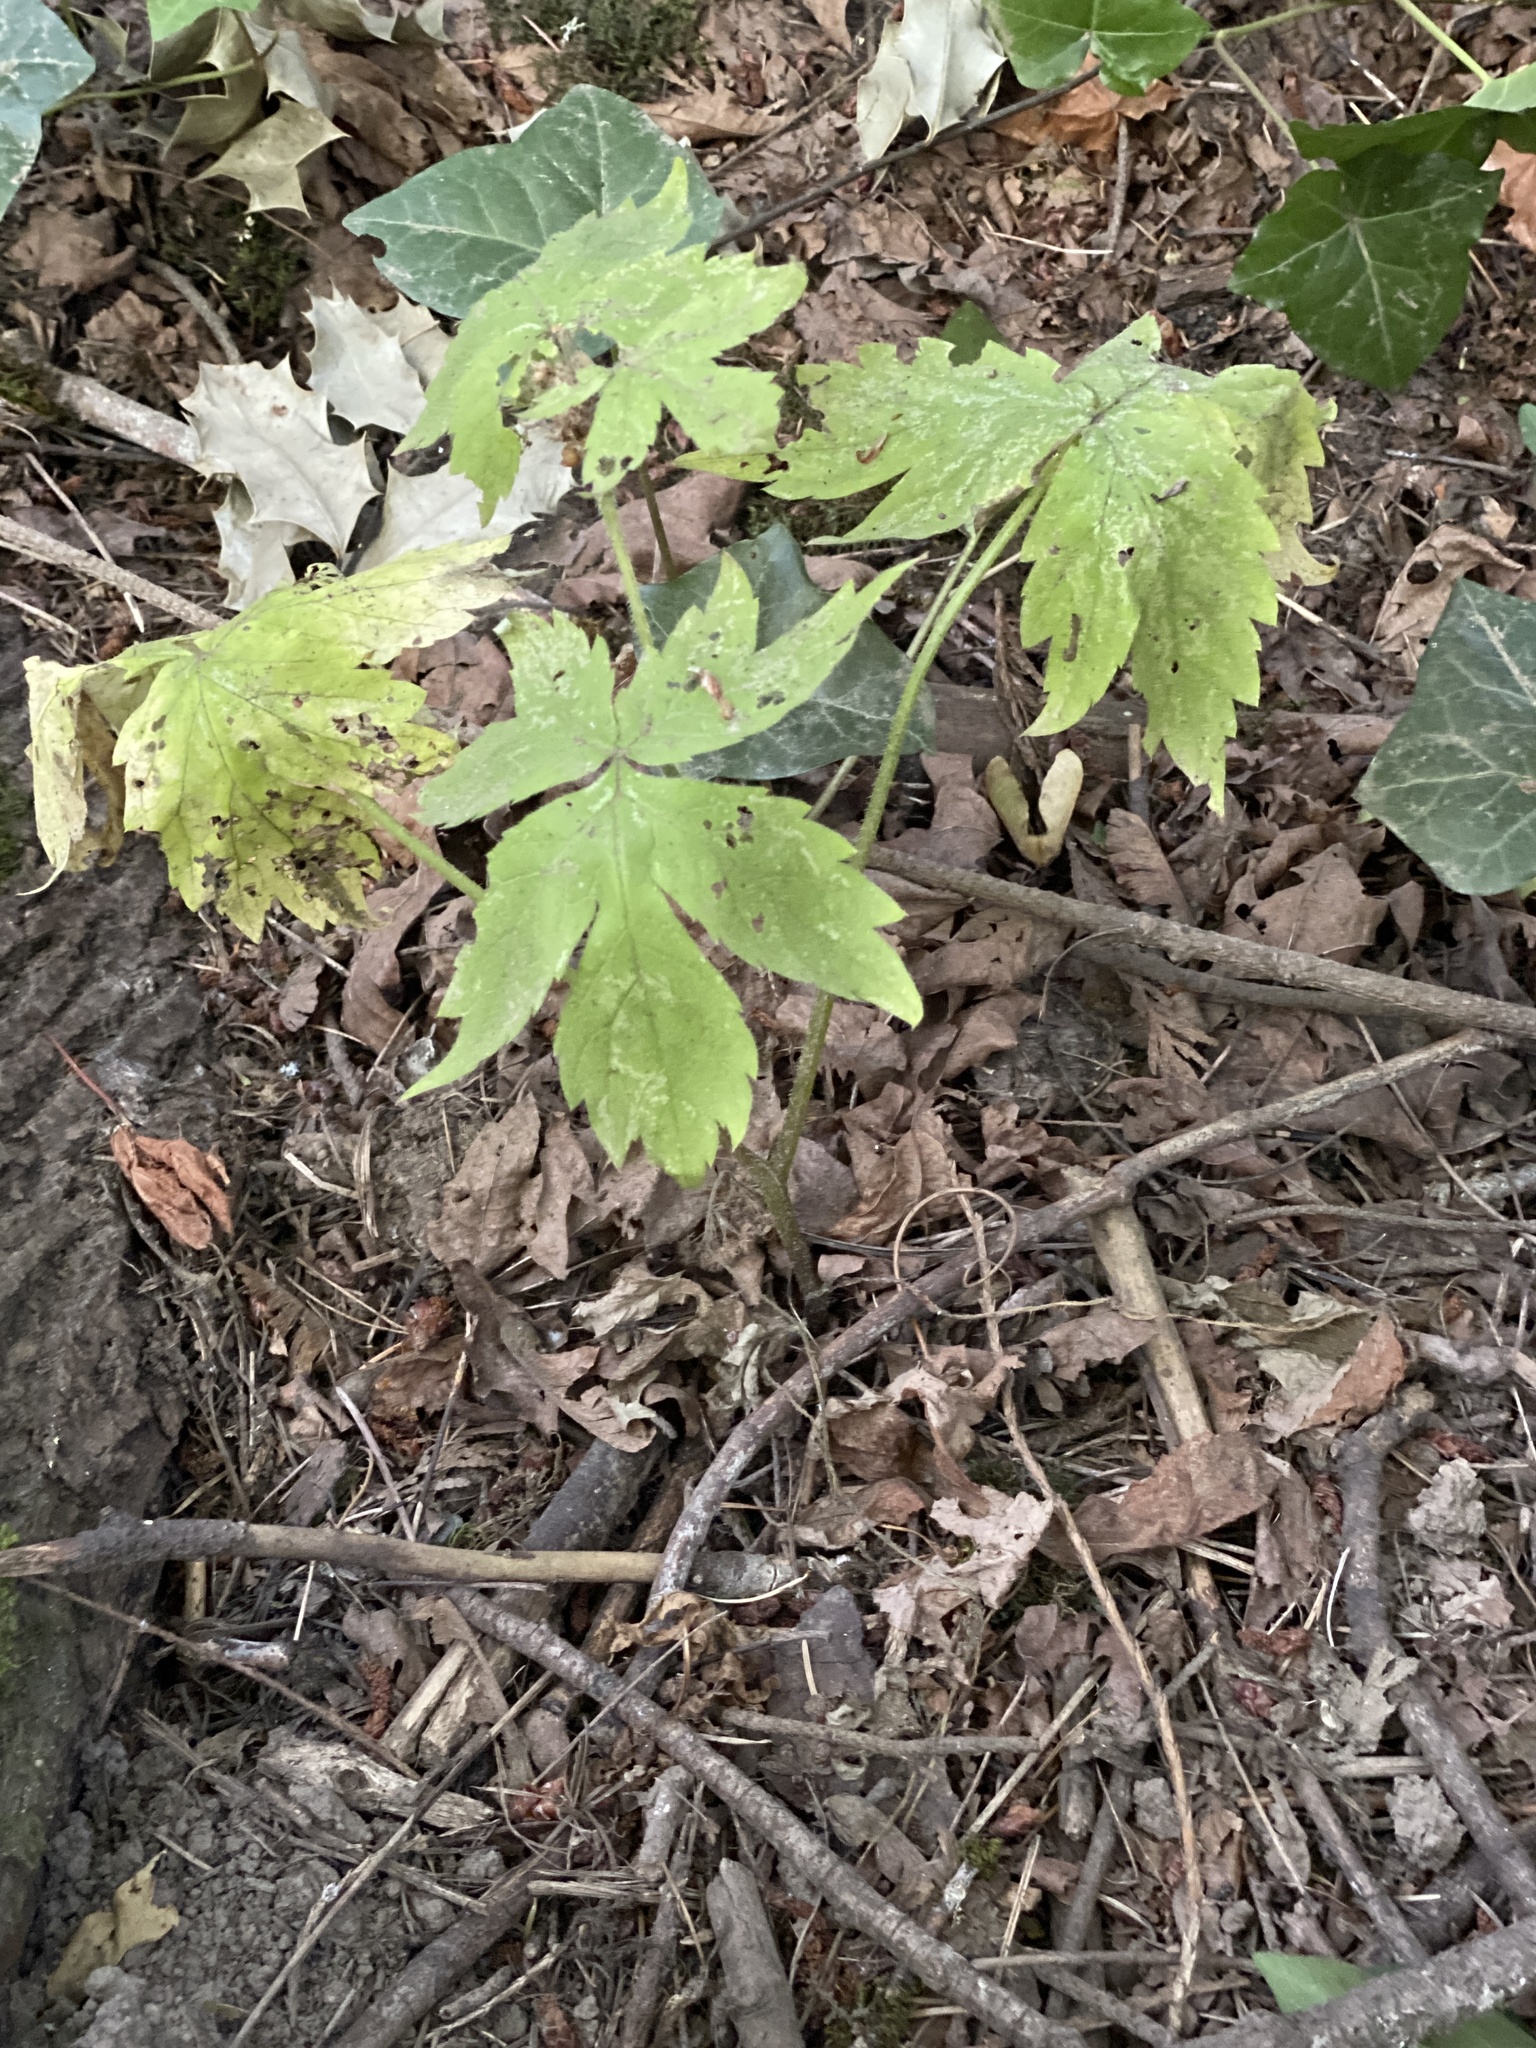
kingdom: Plantae
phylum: Tracheophyta
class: Magnoliopsida
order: Boraginales
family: Hydrophyllaceae
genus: Hydrophyllum
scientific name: Hydrophyllum tenuipes
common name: Pacific waterleaf
